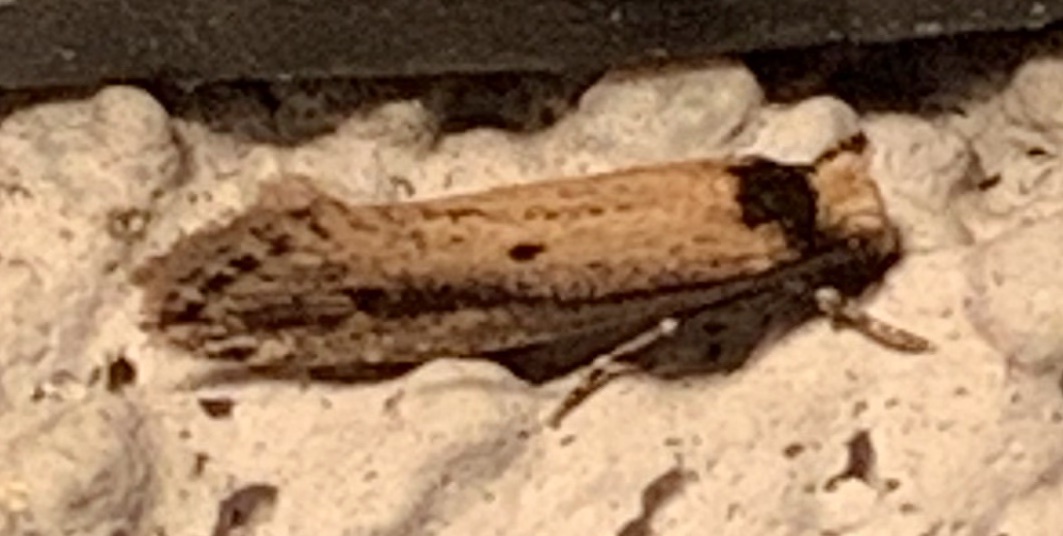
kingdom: Animalia
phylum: Arthropoda
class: Insecta
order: Lepidoptera
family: Tineidae
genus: Tinea
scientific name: Tinea apicimaculella
